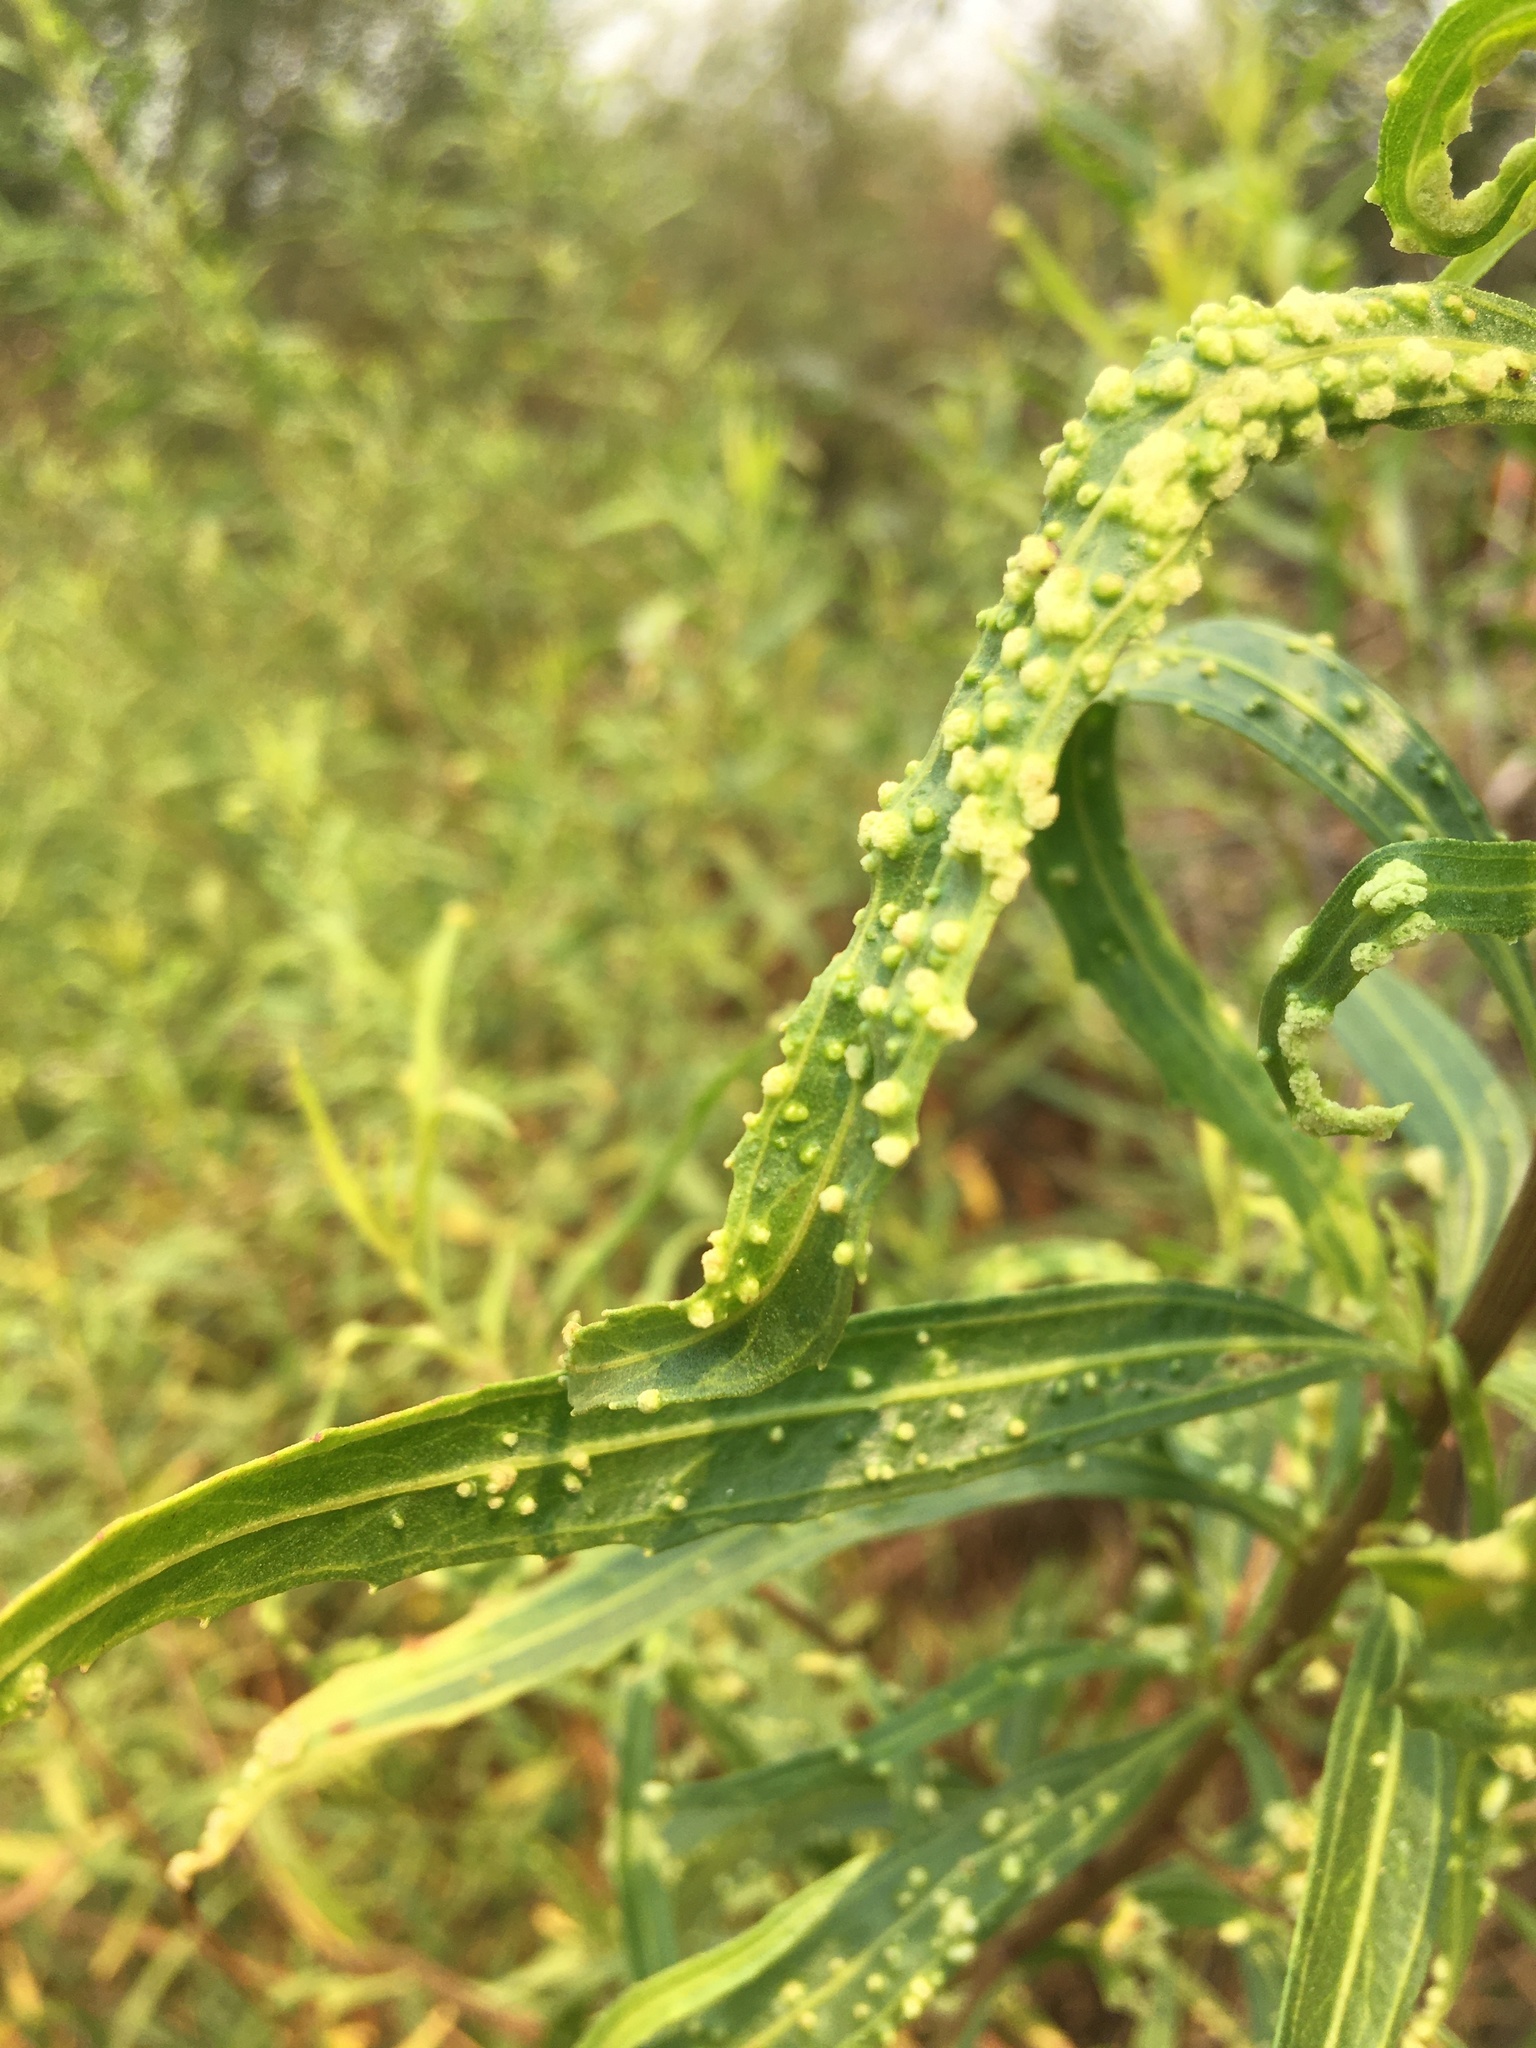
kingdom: Animalia
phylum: Arthropoda
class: Arachnida
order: Trombidiformes
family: Eriophyidae
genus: Aceria
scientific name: Aceria
